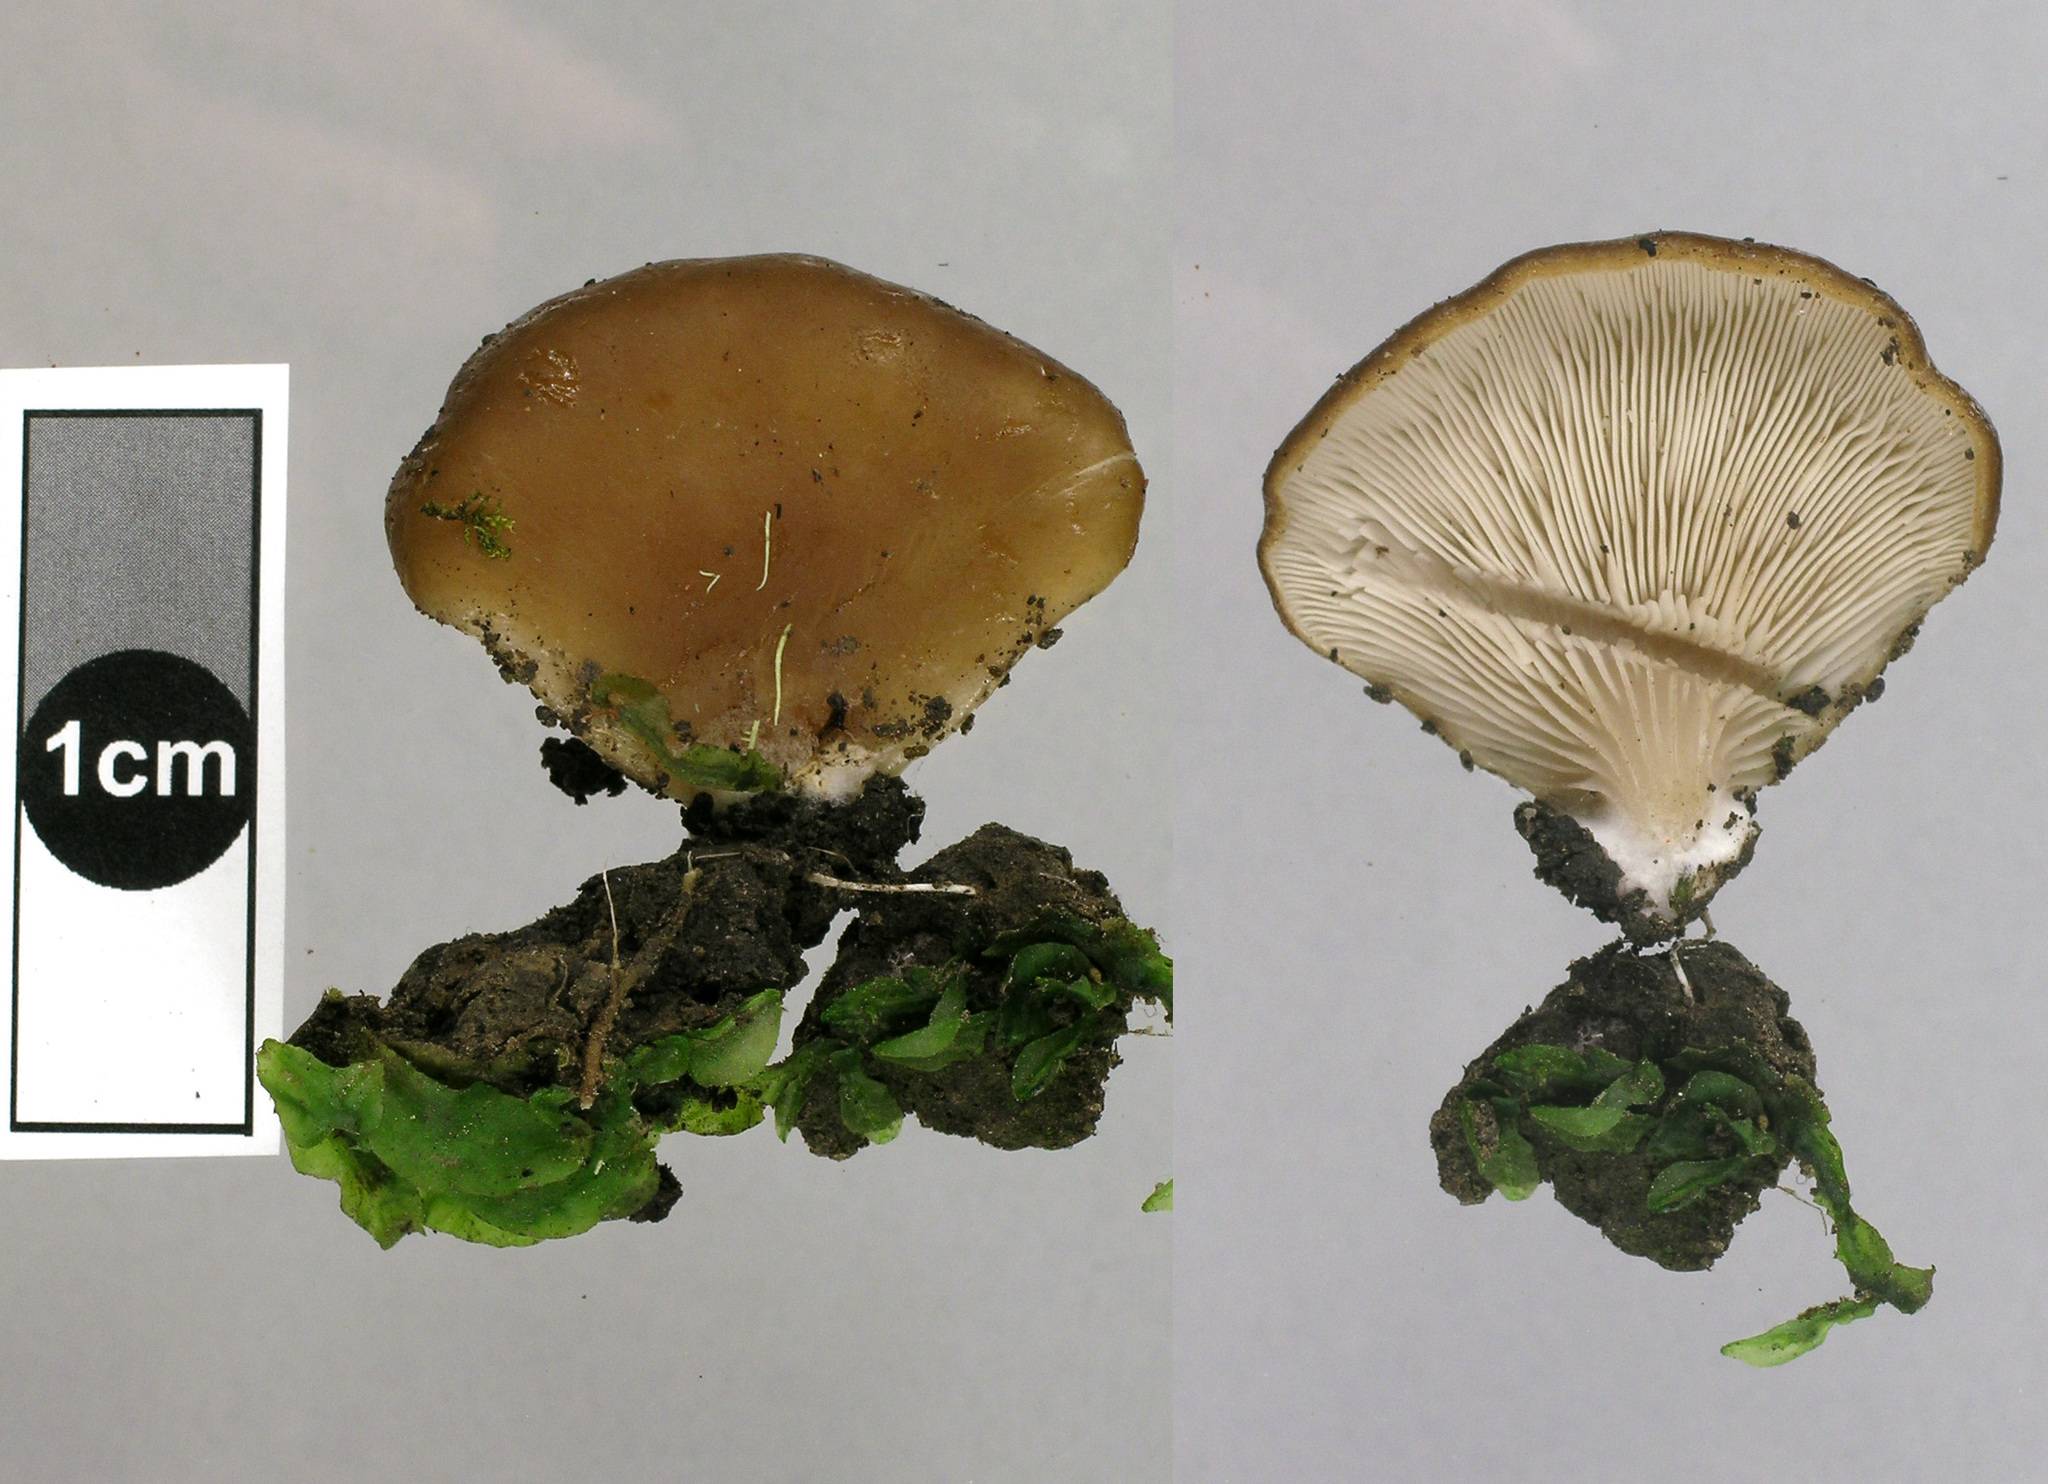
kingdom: Fungi
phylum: Basidiomycota
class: Agaricomycetes
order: Agaricales
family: Pleurotaceae
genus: Hohenbuehelia
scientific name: Hohenbuehelia luteola
